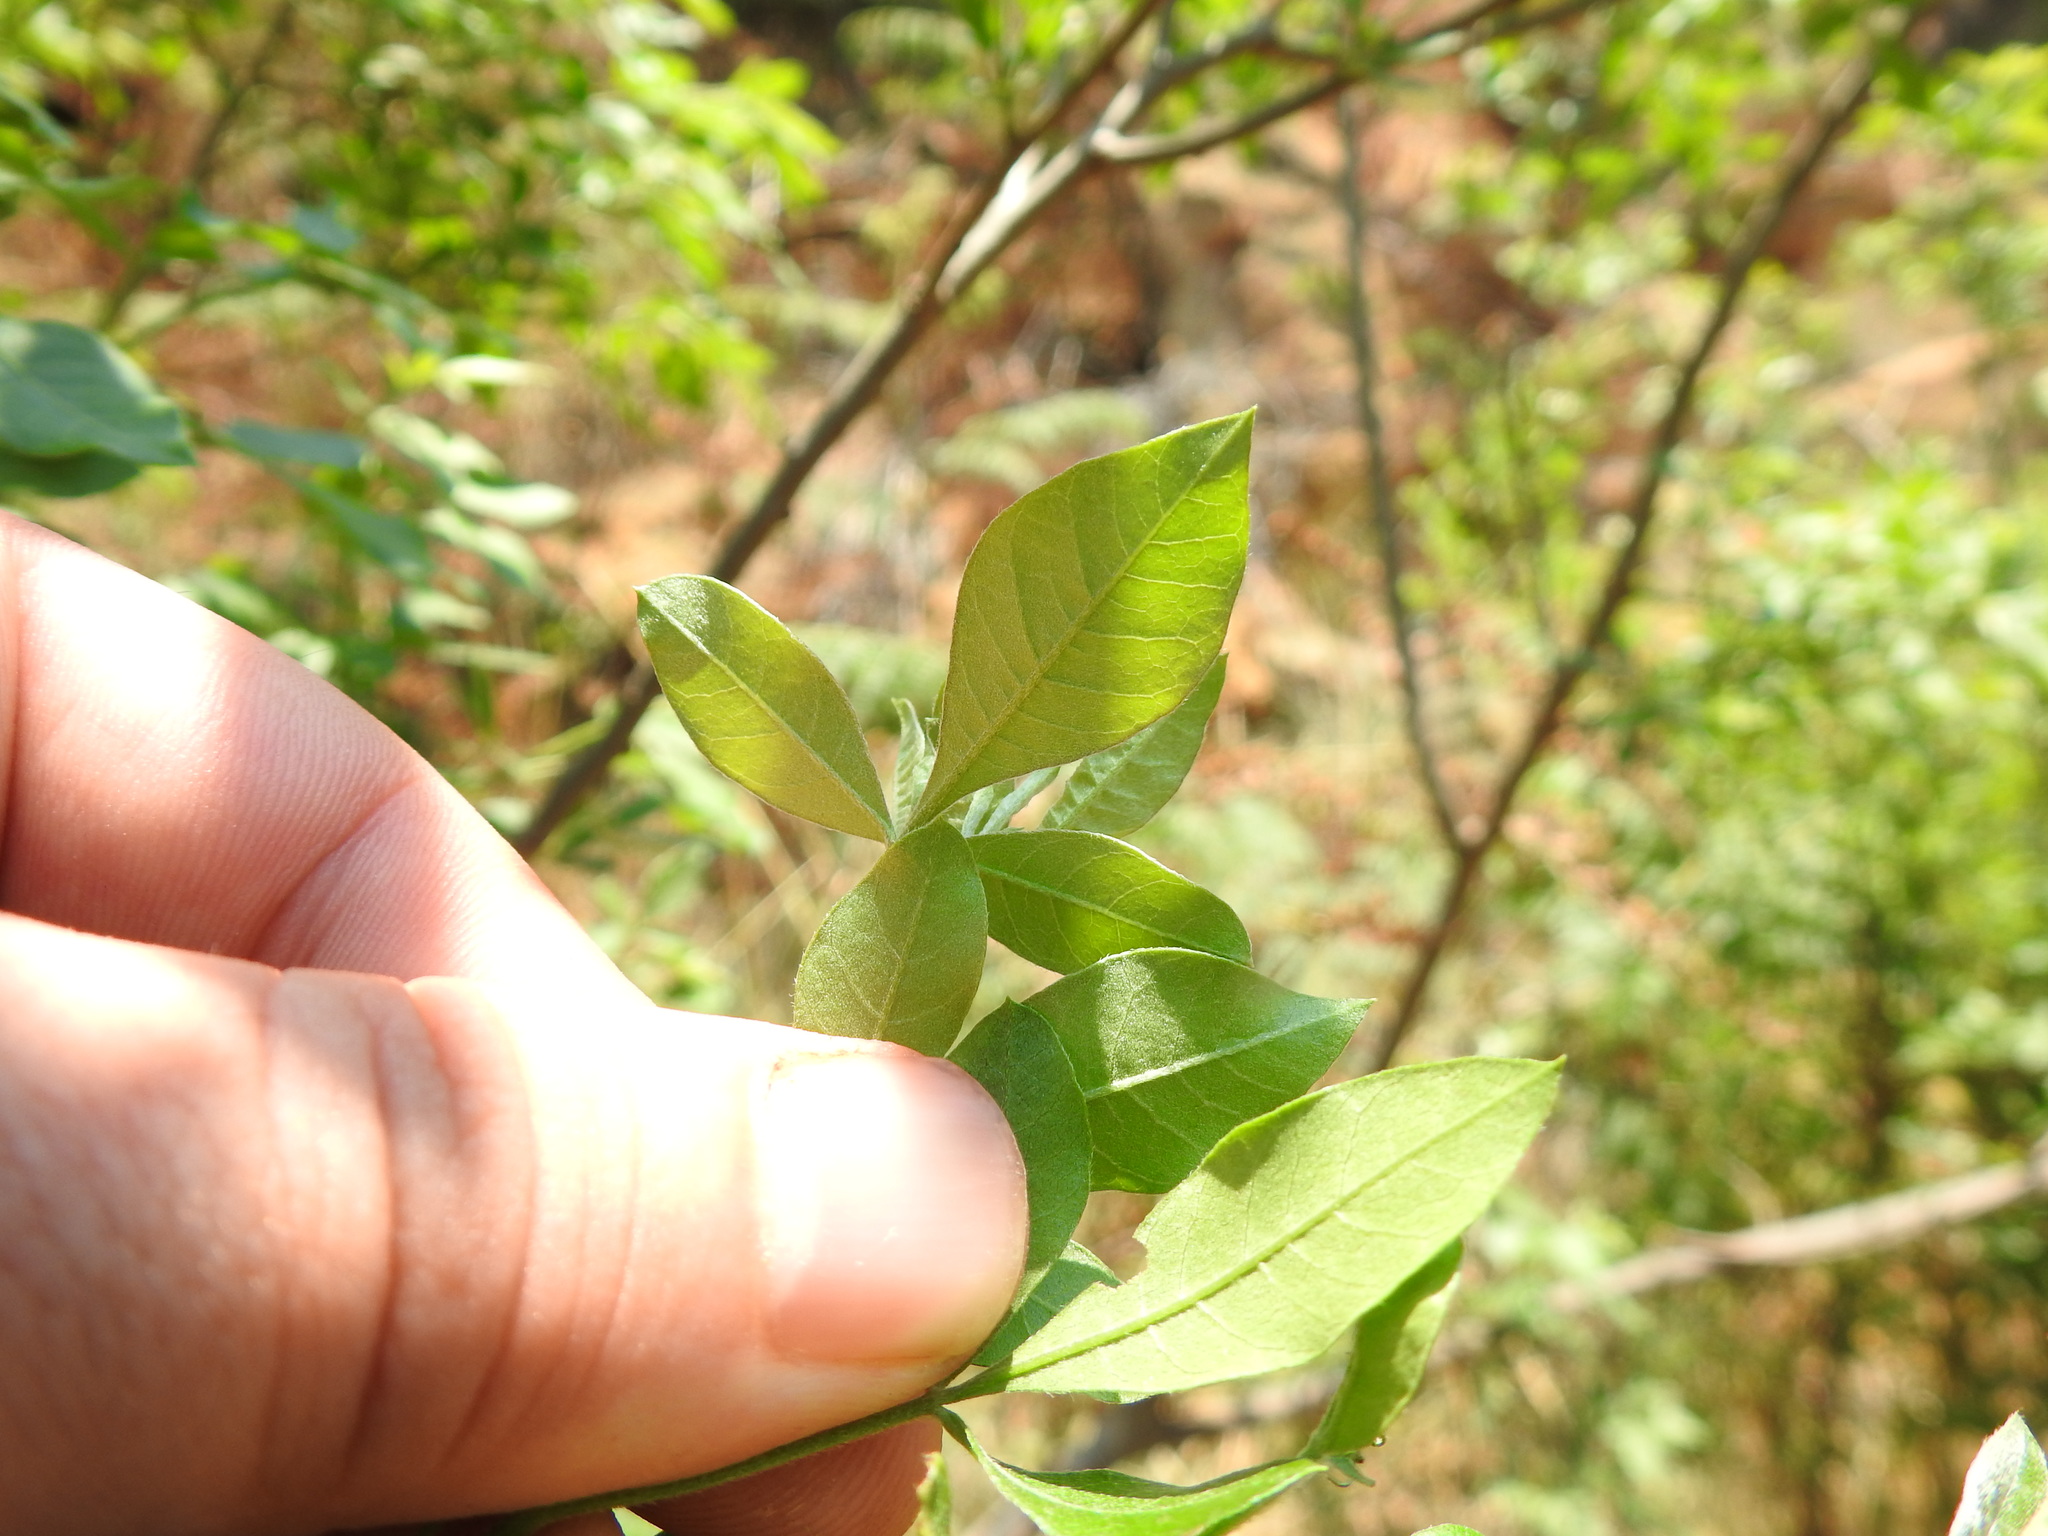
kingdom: Plantae
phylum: Tracheophyta
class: Magnoliopsida
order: Sapindales
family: Anacardiaceae
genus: Searsia
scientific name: Searsia pyroides
